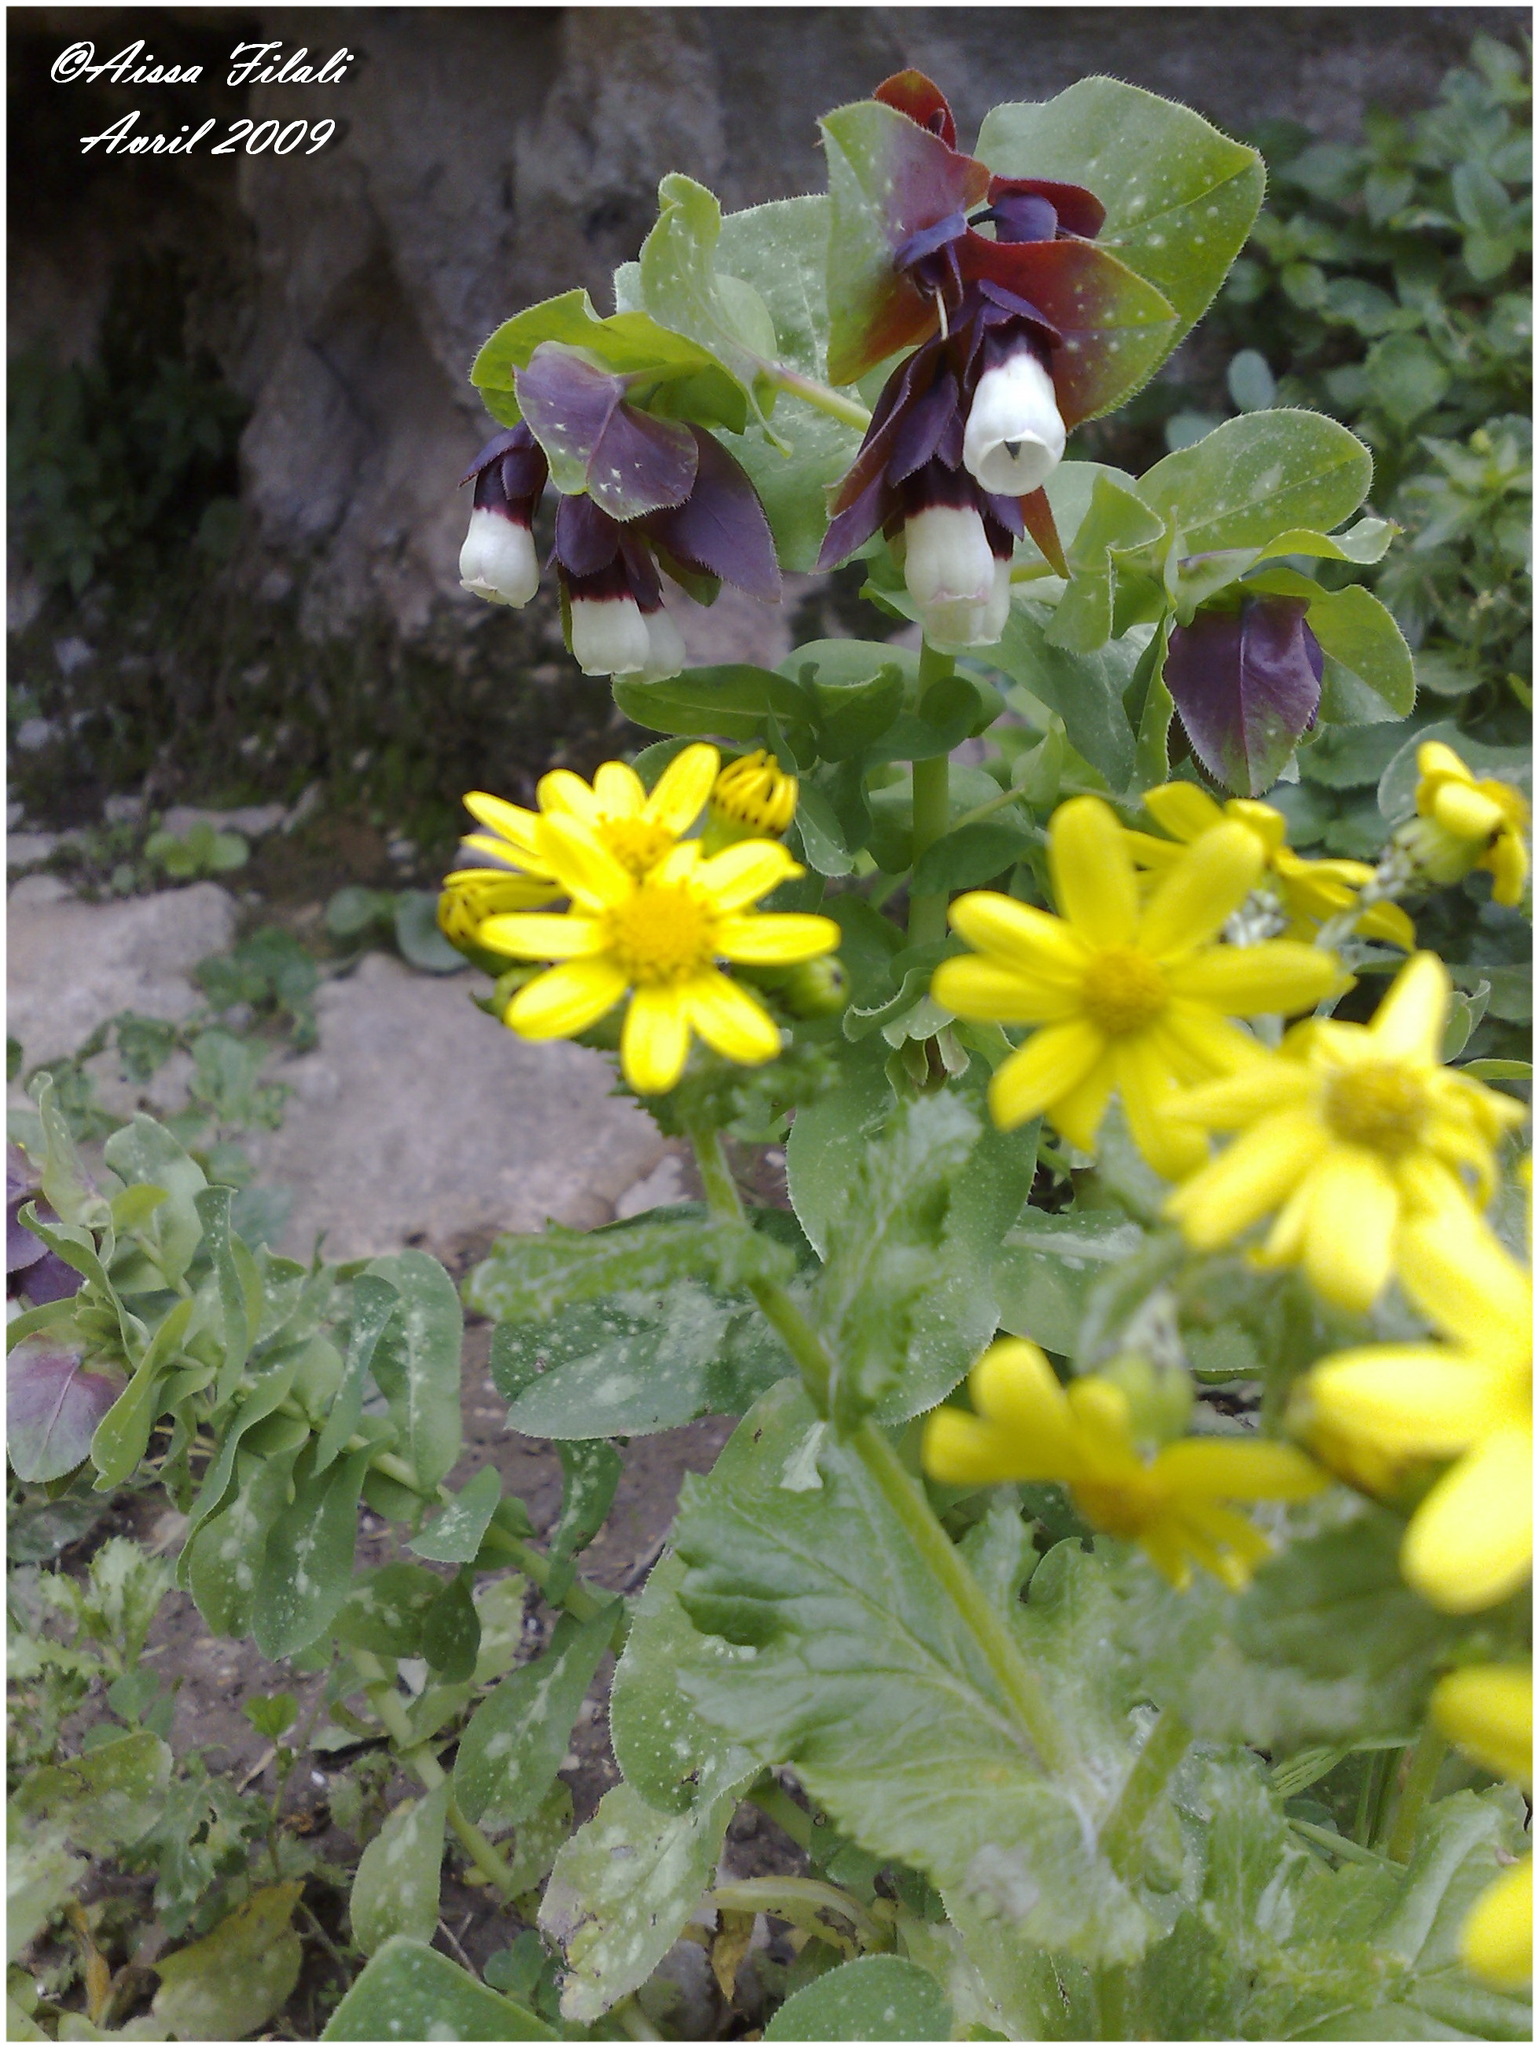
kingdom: Plantae
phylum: Tracheophyta
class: Magnoliopsida
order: Boraginales
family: Boraginaceae
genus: Cerinthe
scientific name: Cerinthe major
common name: Greater honeywort
